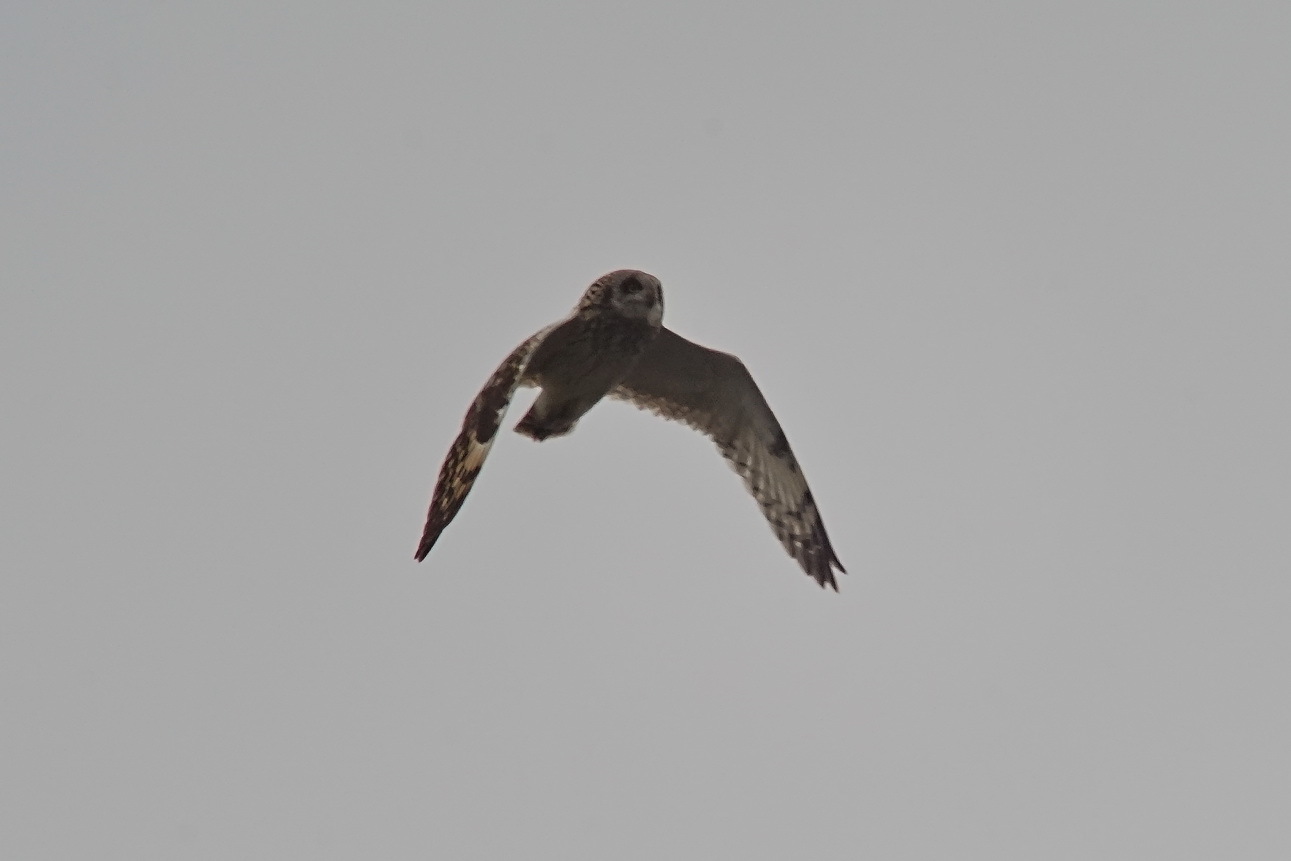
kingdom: Animalia
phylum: Chordata
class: Aves
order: Strigiformes
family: Strigidae
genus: Asio
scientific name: Asio flammeus
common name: Short-eared owl
